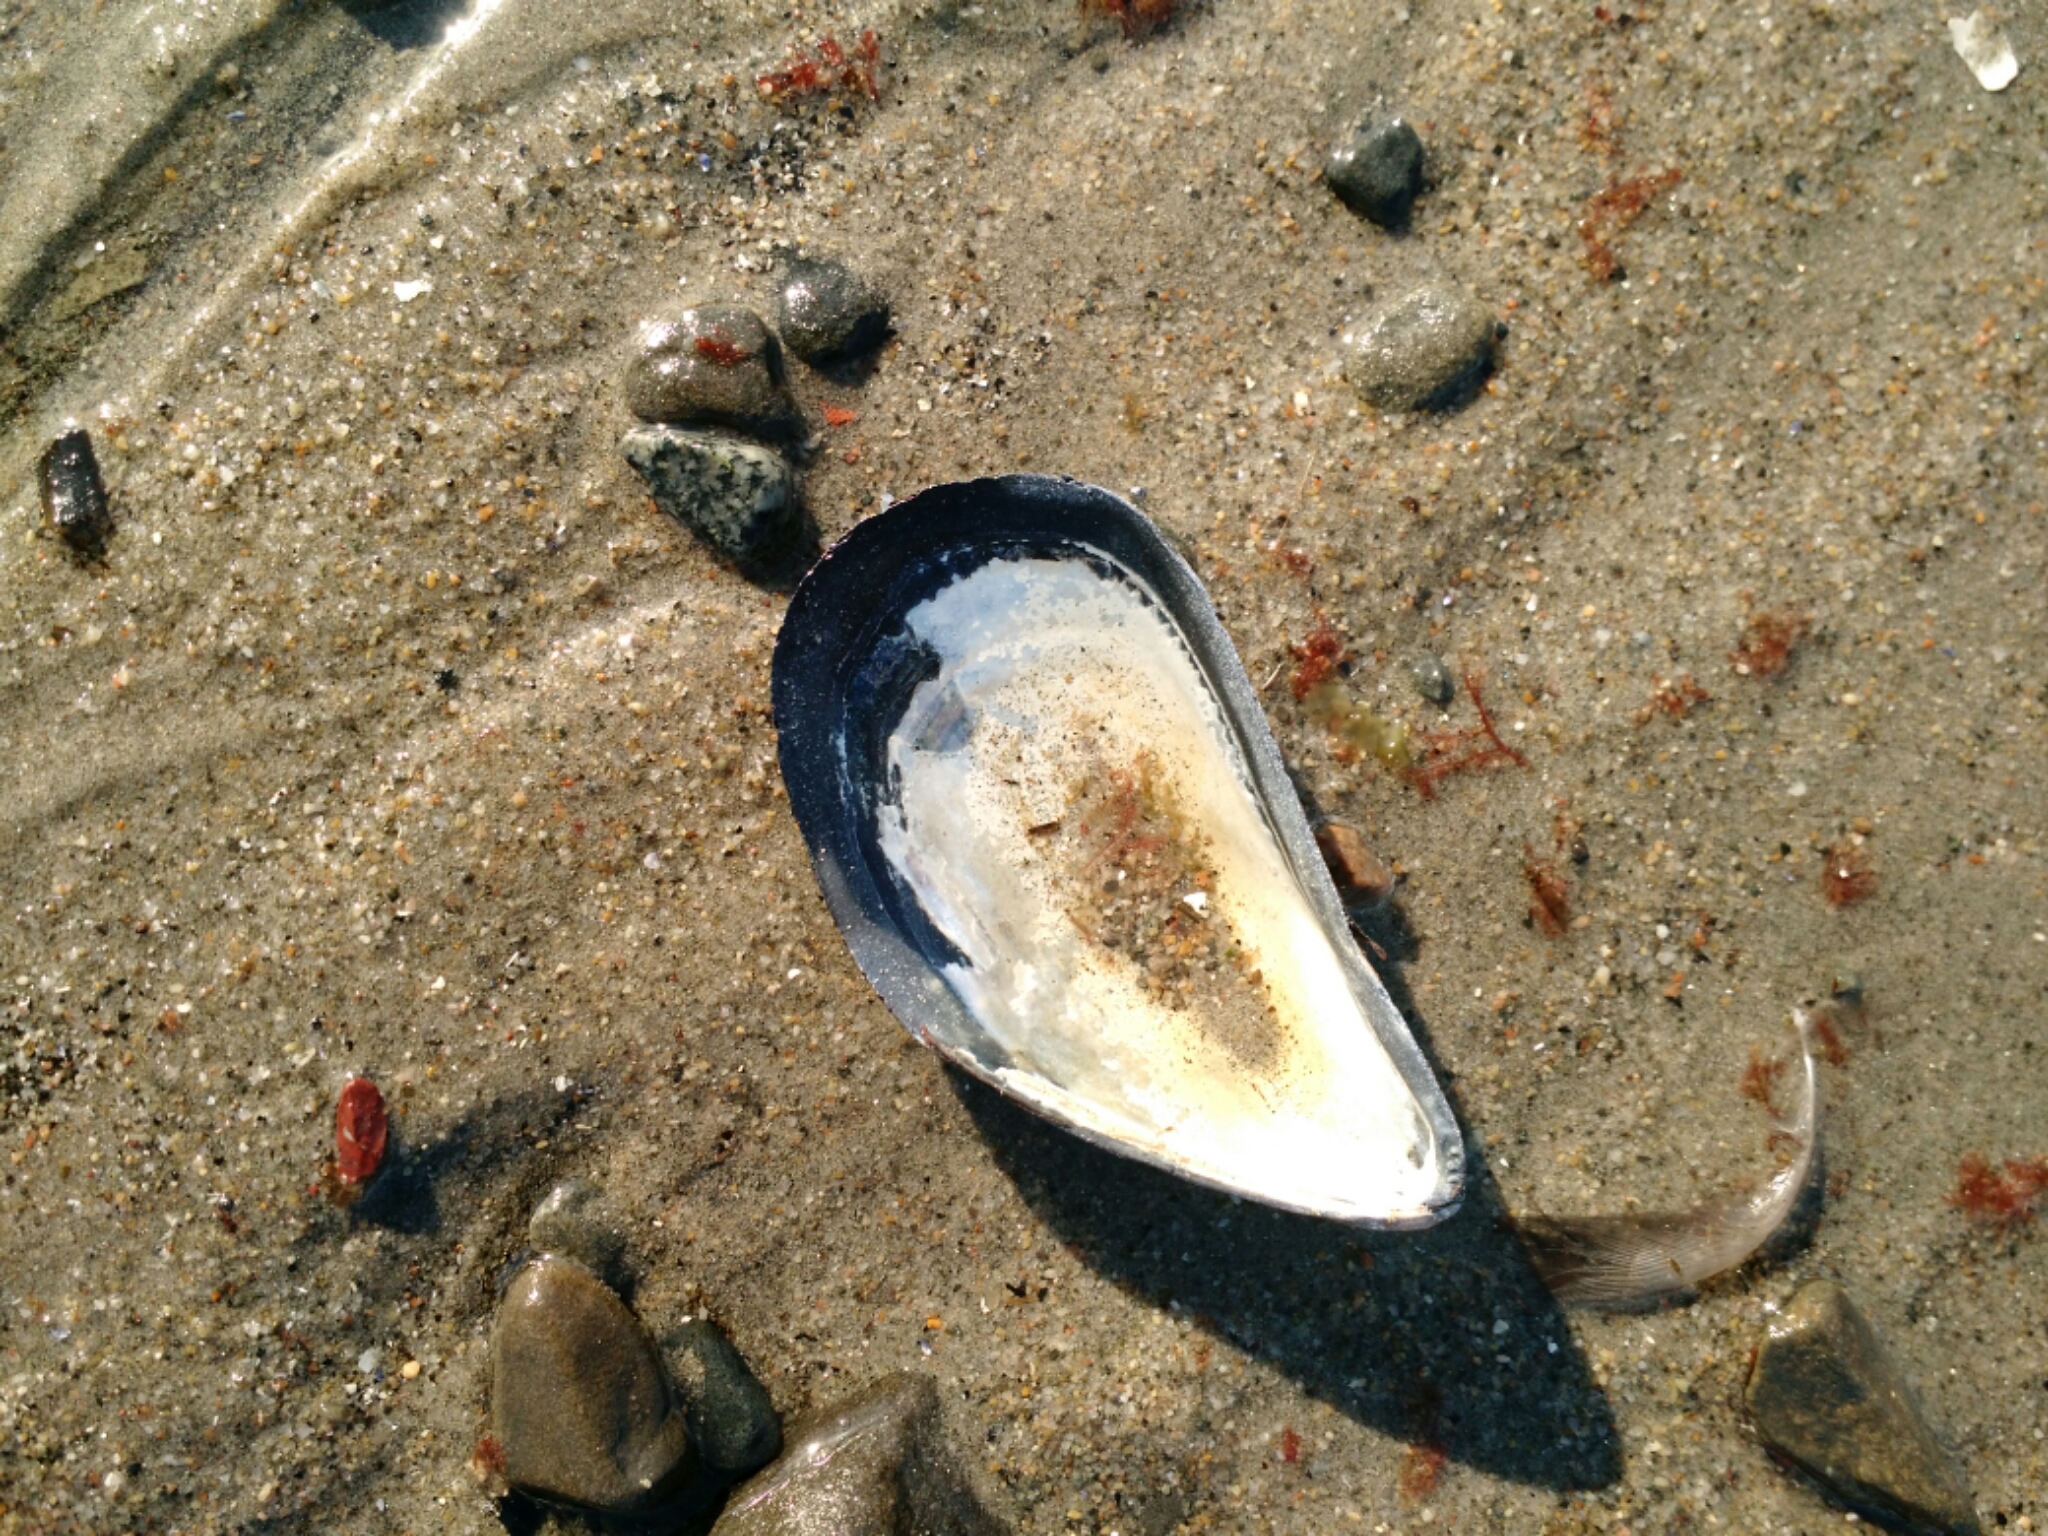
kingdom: Animalia
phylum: Mollusca
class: Bivalvia
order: Mytilida
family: Mytilidae
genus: Mytilus
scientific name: Mytilus edulis
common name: Blue mussel
